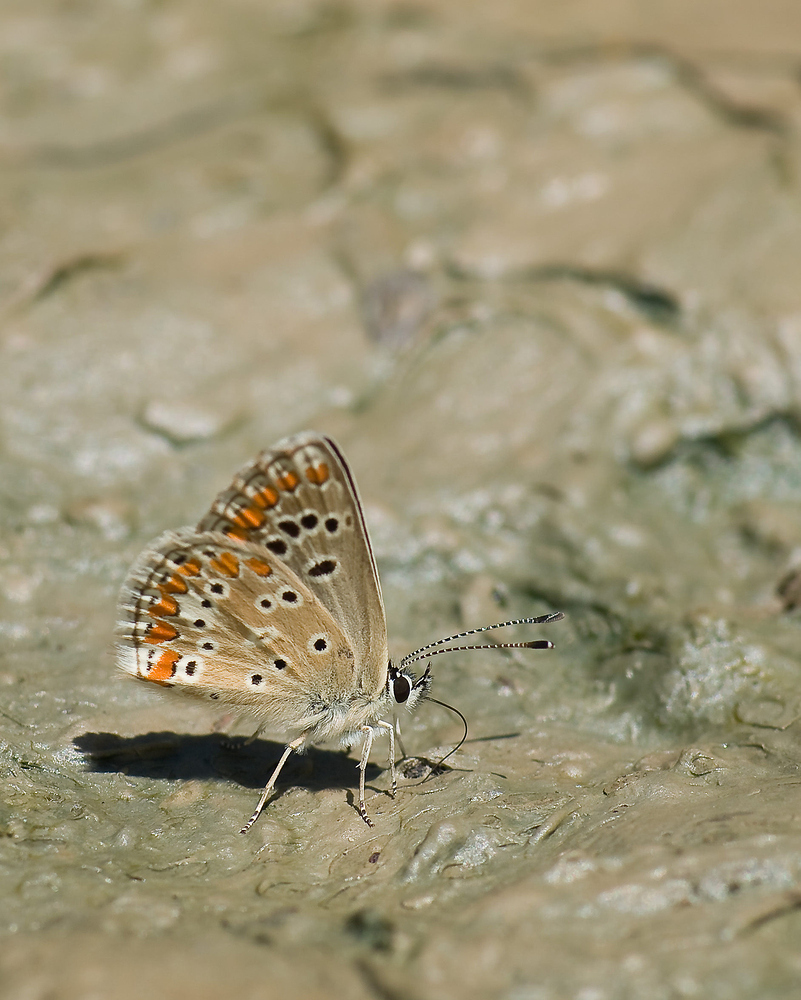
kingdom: Animalia
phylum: Arthropoda
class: Insecta
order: Lepidoptera
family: Lycaenidae
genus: Aricia
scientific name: Aricia agestis
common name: Brown argus
